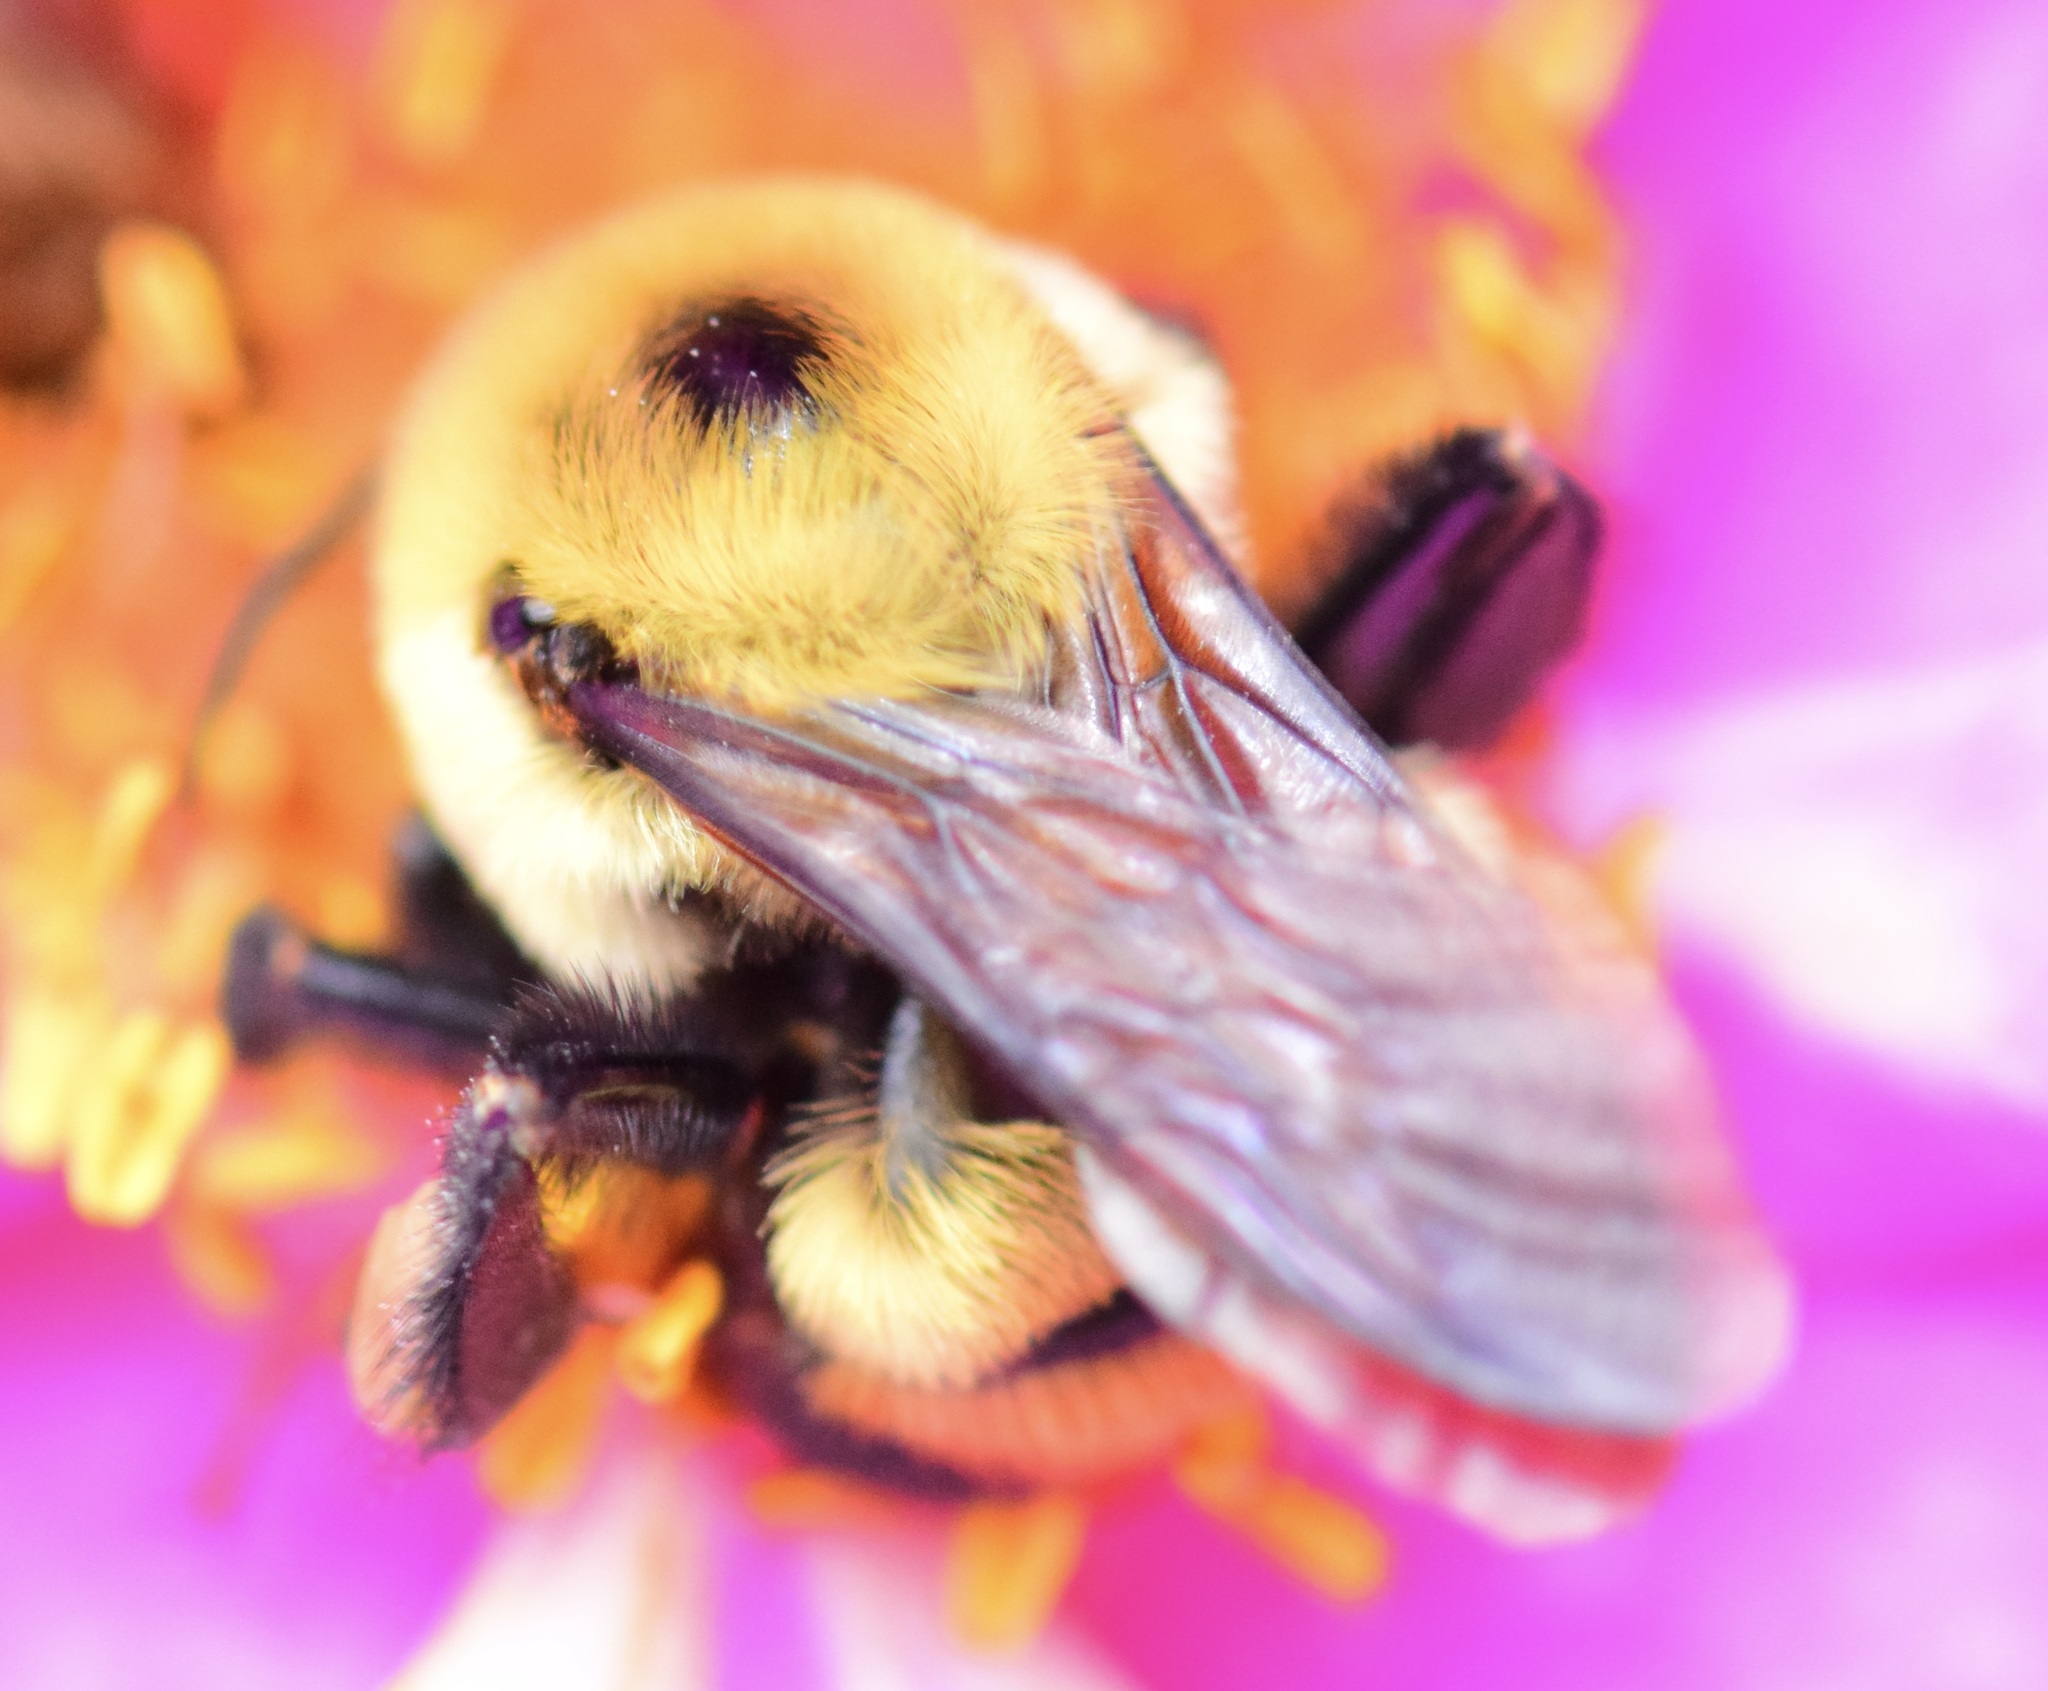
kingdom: Animalia
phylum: Arthropoda
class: Insecta
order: Hymenoptera
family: Apidae
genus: Bombus
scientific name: Bombus griseocollis
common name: Brown-belted bumble bee
